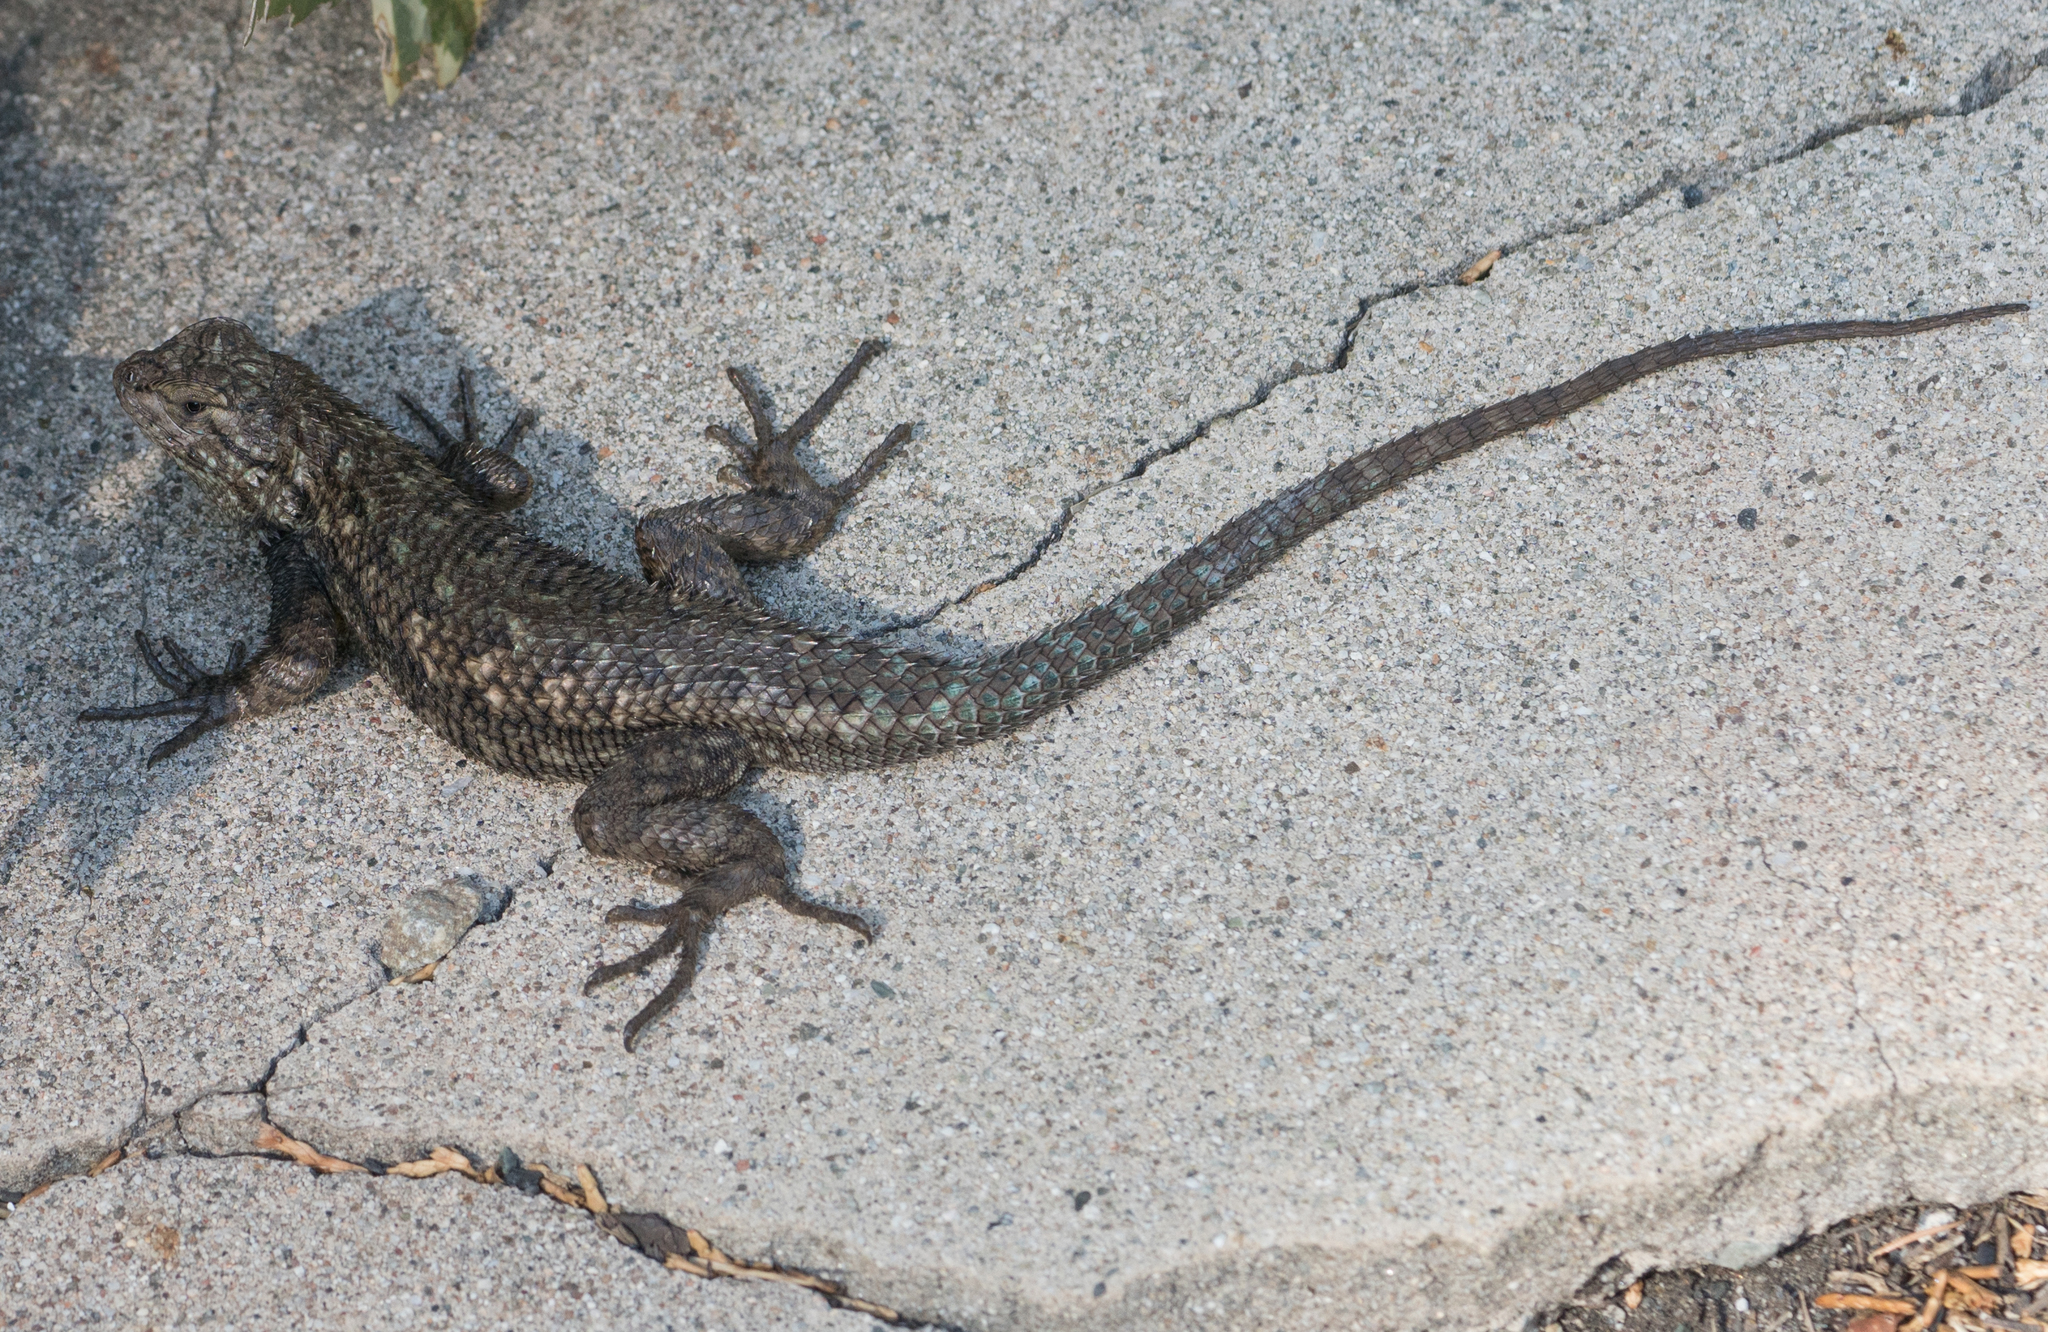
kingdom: Animalia
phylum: Chordata
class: Squamata
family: Phrynosomatidae
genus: Sceloporus
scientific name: Sceloporus occidentalis
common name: Western fence lizard
